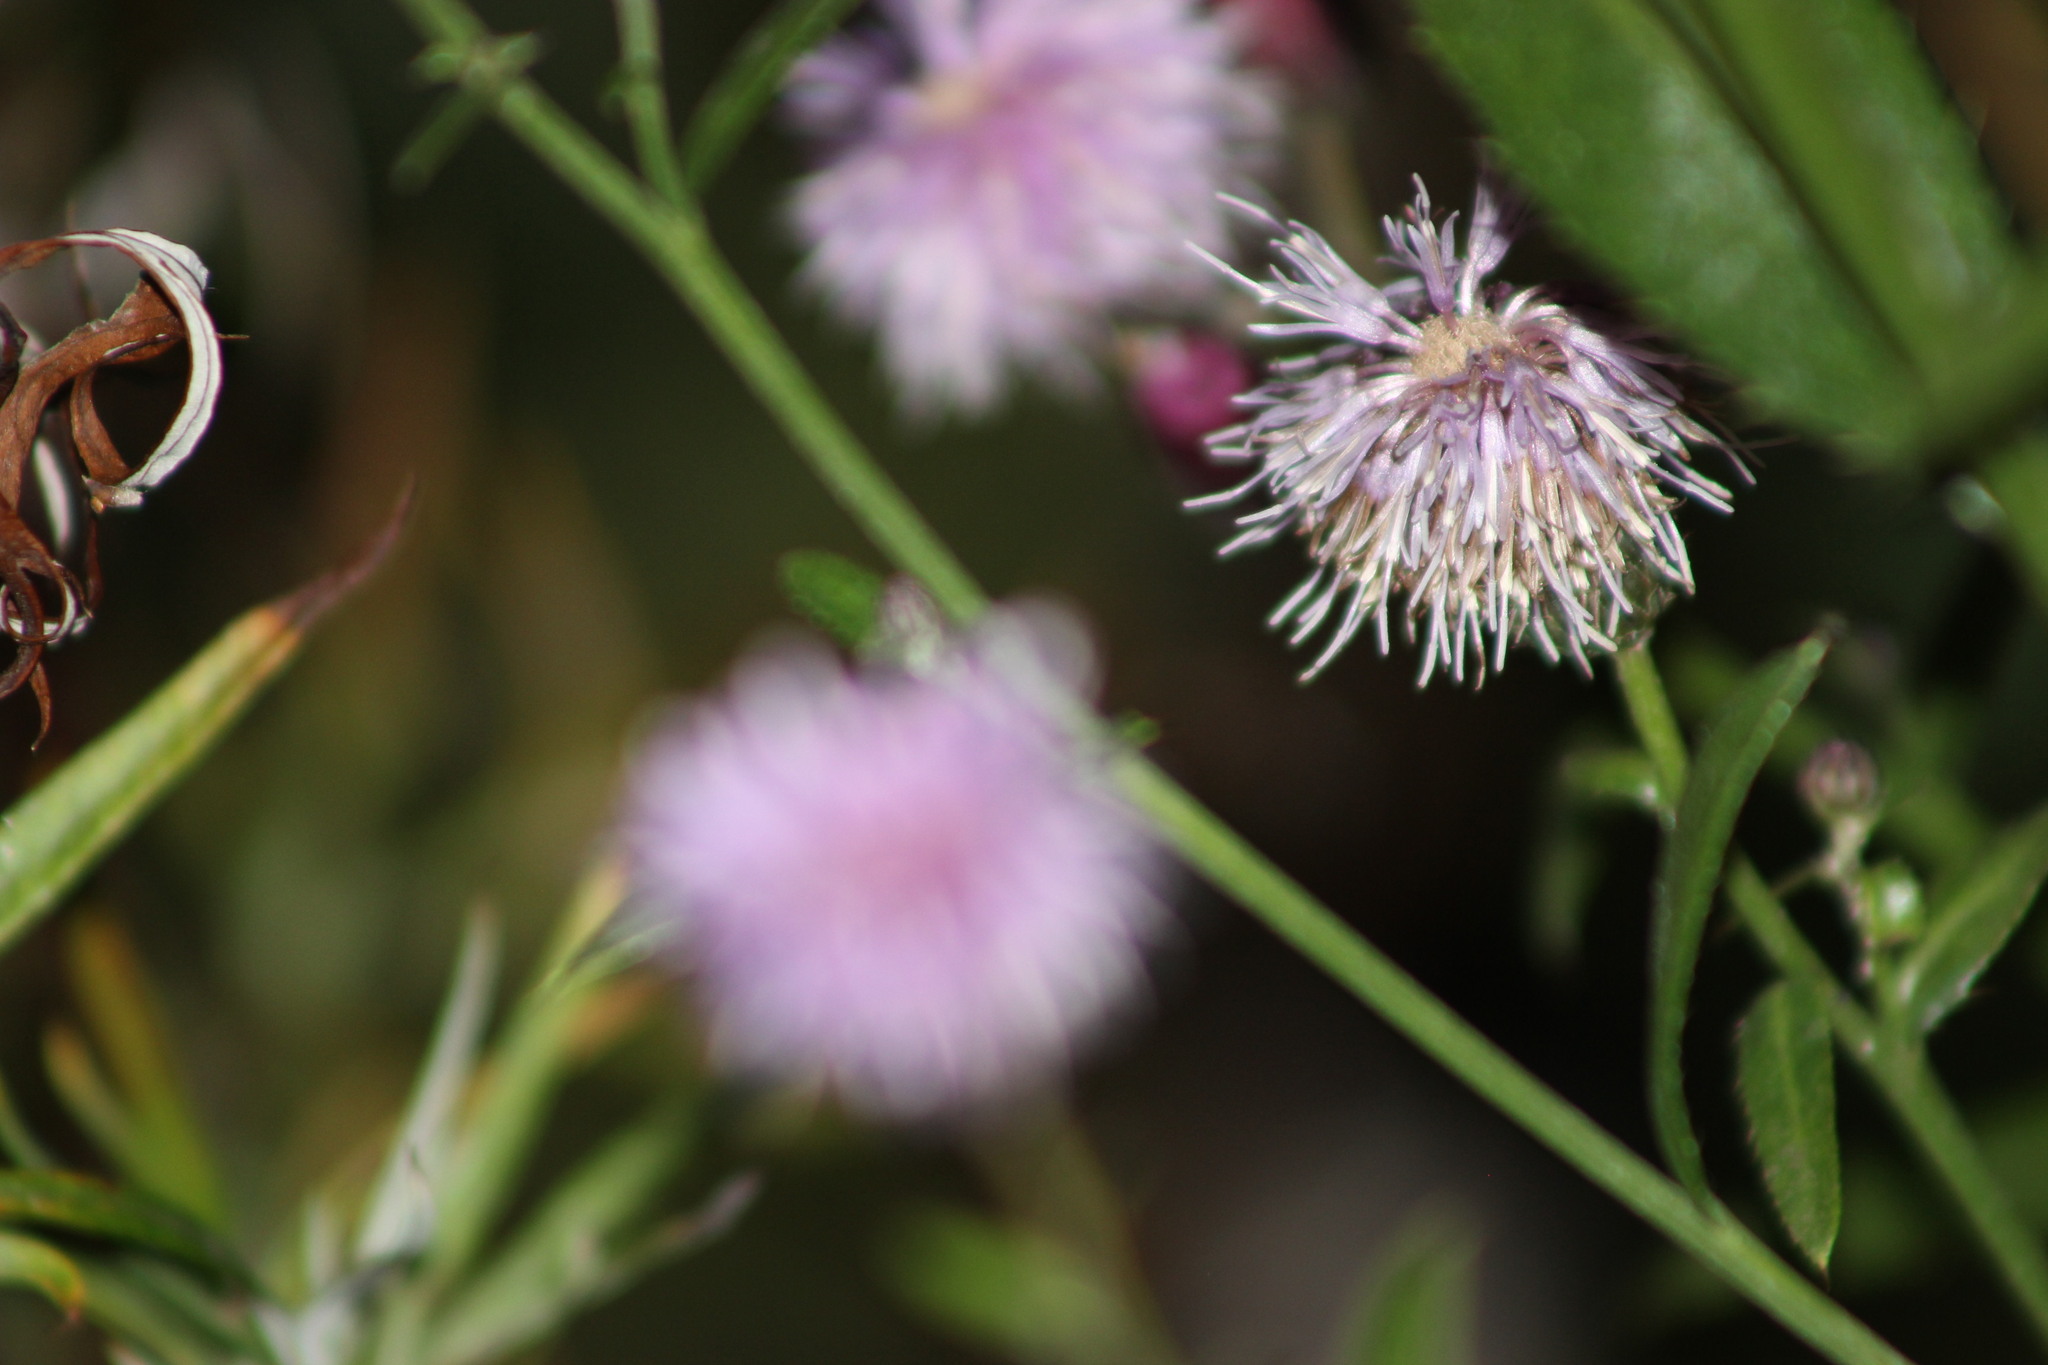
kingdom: Plantae
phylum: Tracheophyta
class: Magnoliopsida
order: Asterales
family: Asteraceae
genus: Cirsium
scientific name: Cirsium arvense
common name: Creeping thistle
